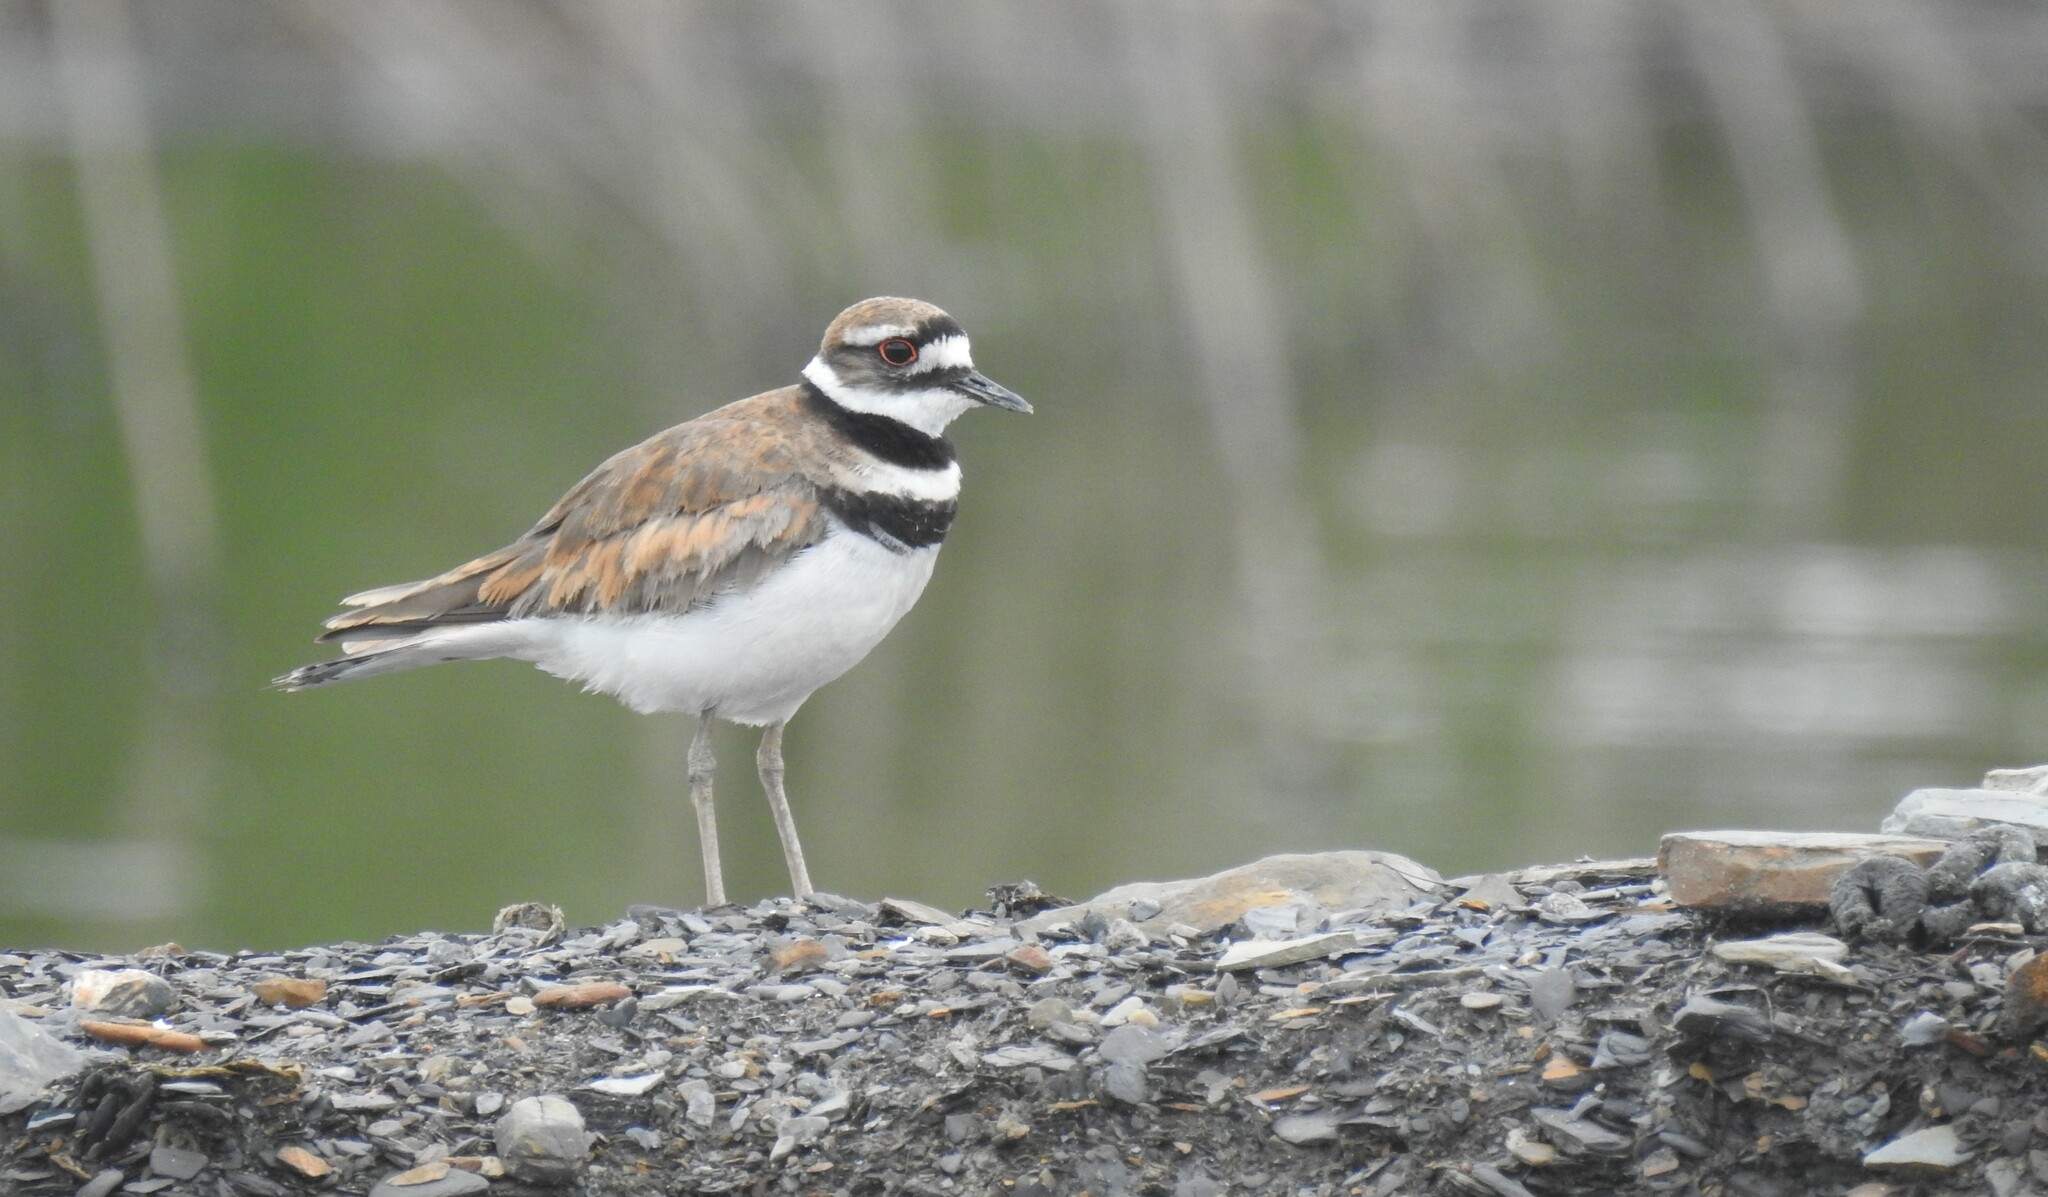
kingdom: Animalia
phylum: Chordata
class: Aves
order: Charadriiformes
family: Charadriidae
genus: Charadrius
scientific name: Charadrius vociferus
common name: Killdeer
